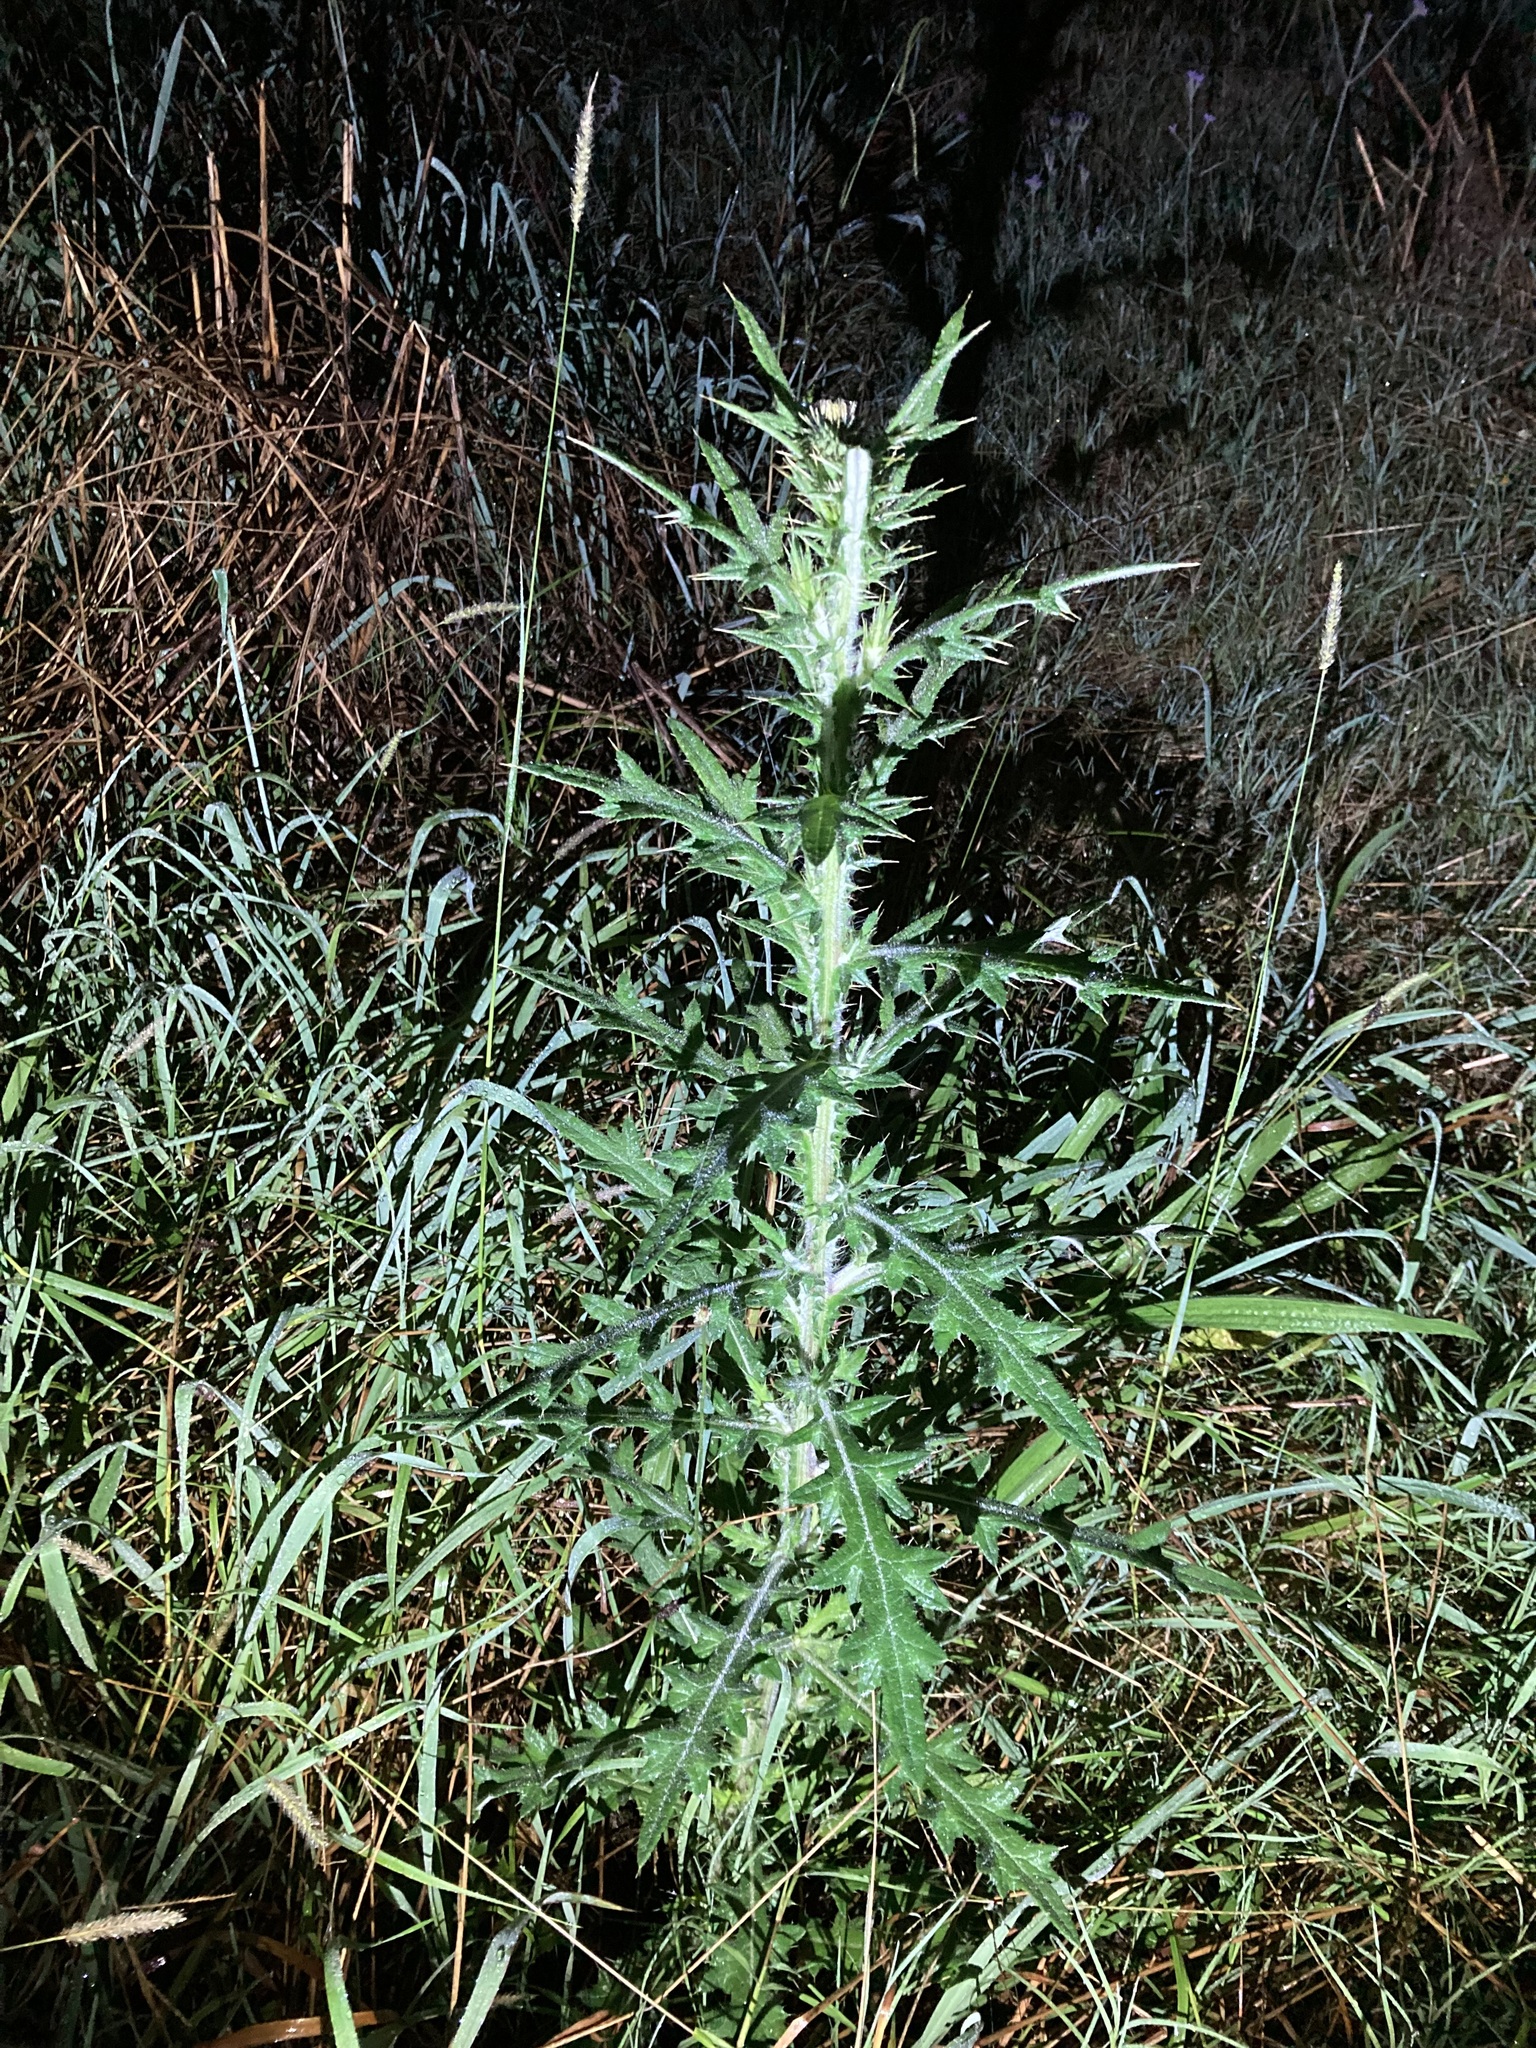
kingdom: Plantae
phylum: Tracheophyta
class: Magnoliopsida
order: Asterales
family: Asteraceae
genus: Cirsium
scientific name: Cirsium vulgare
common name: Bull thistle
